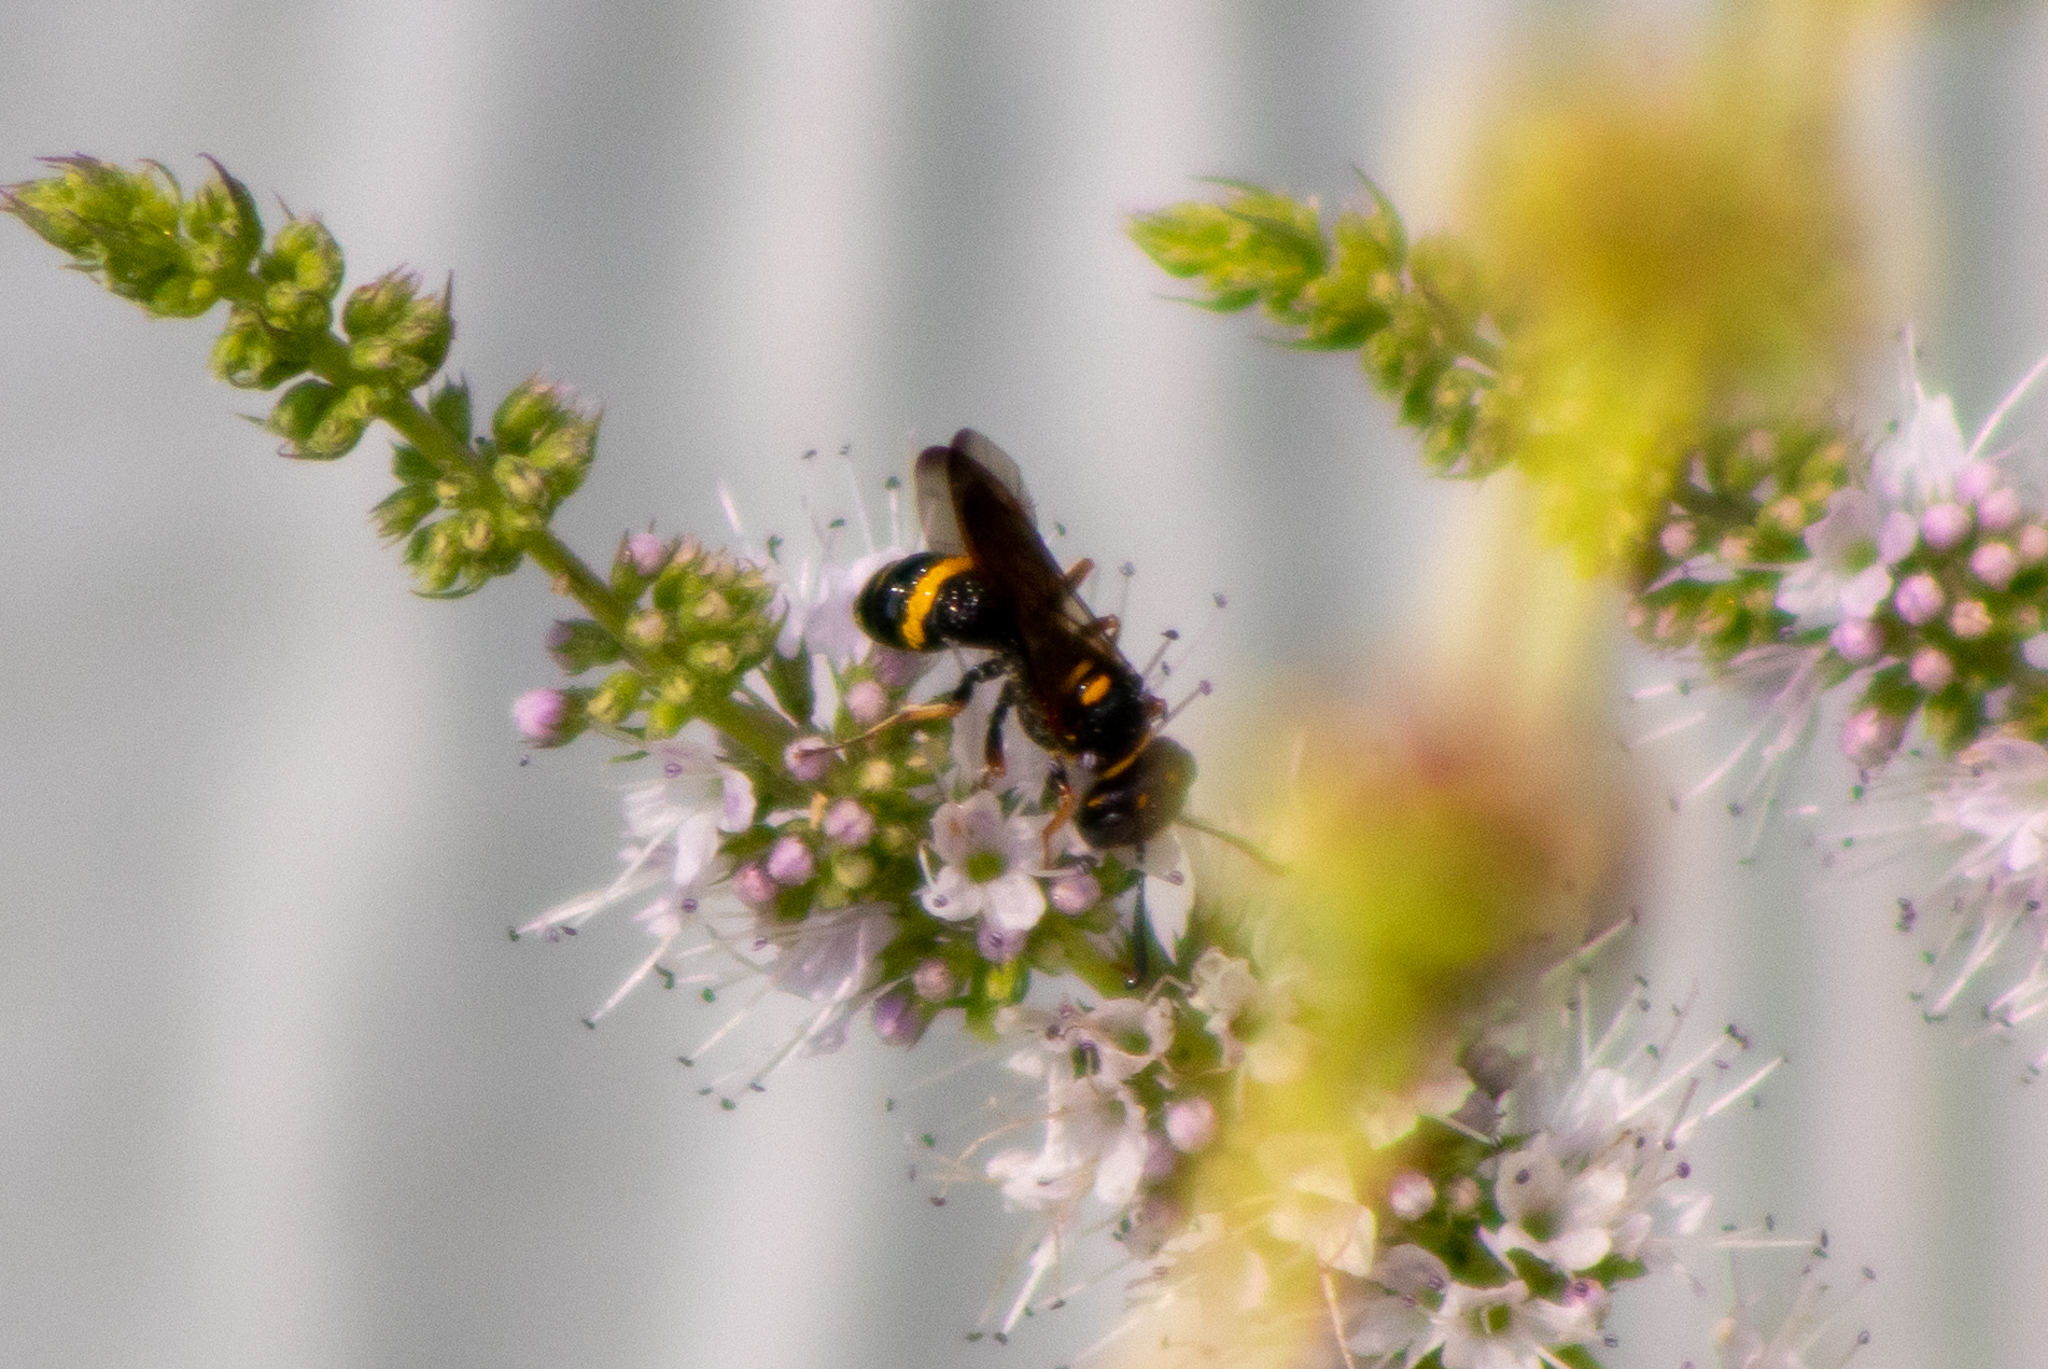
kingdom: Animalia
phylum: Arthropoda
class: Insecta
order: Hymenoptera
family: Crabronidae
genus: Philanthus
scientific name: Philanthus gibbosus
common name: Humped beewolf
